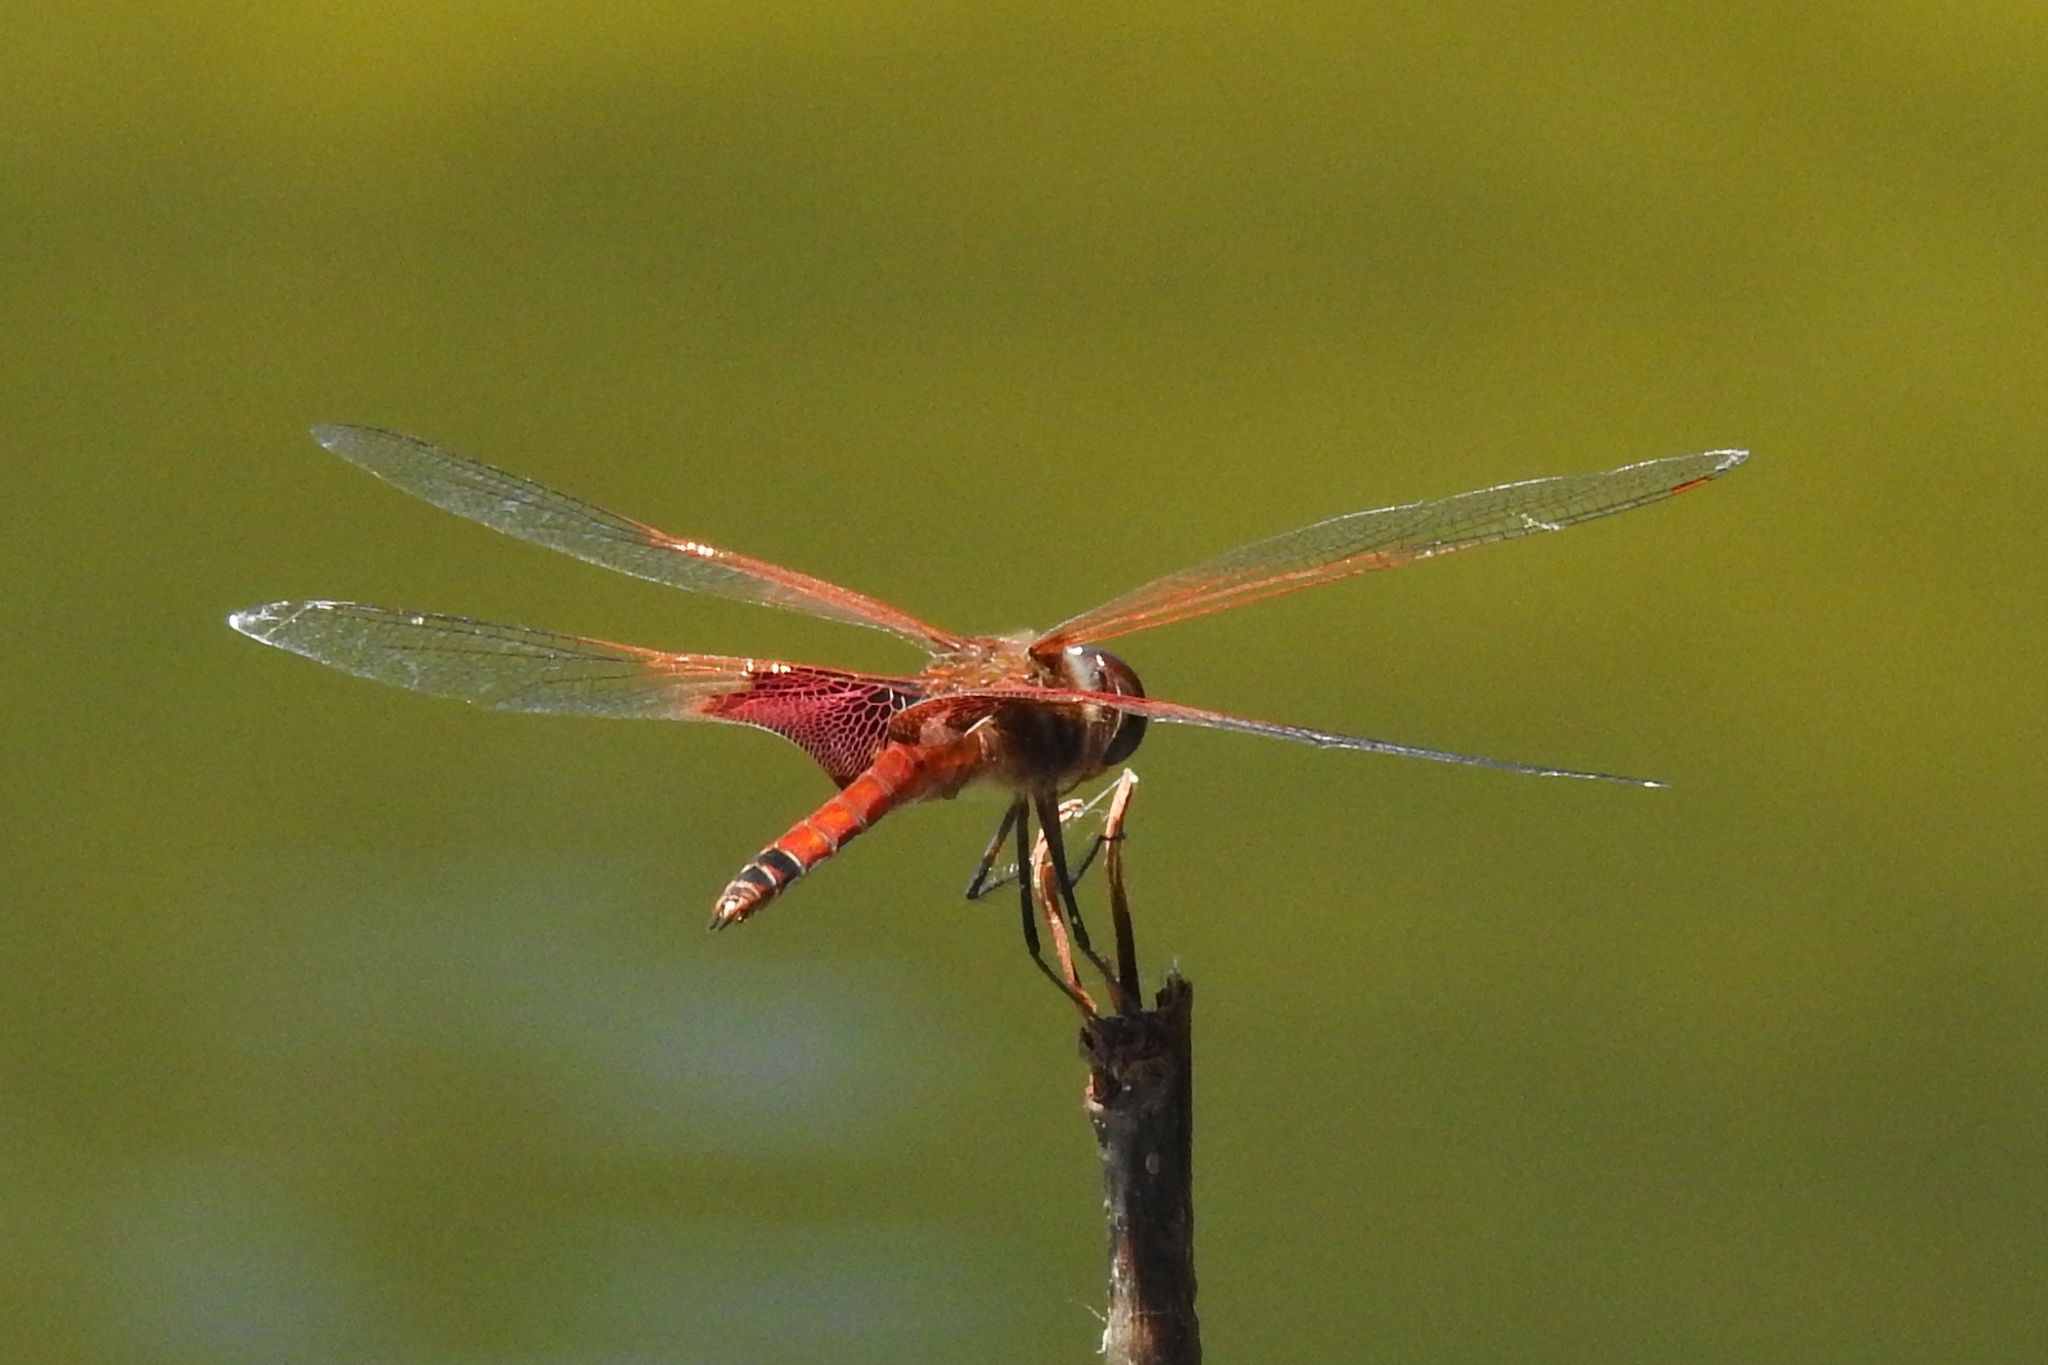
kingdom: Animalia
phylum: Arthropoda
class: Insecta
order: Odonata
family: Libellulidae
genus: Tramea
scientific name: Tramea carolina
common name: Carolina saddlebags
